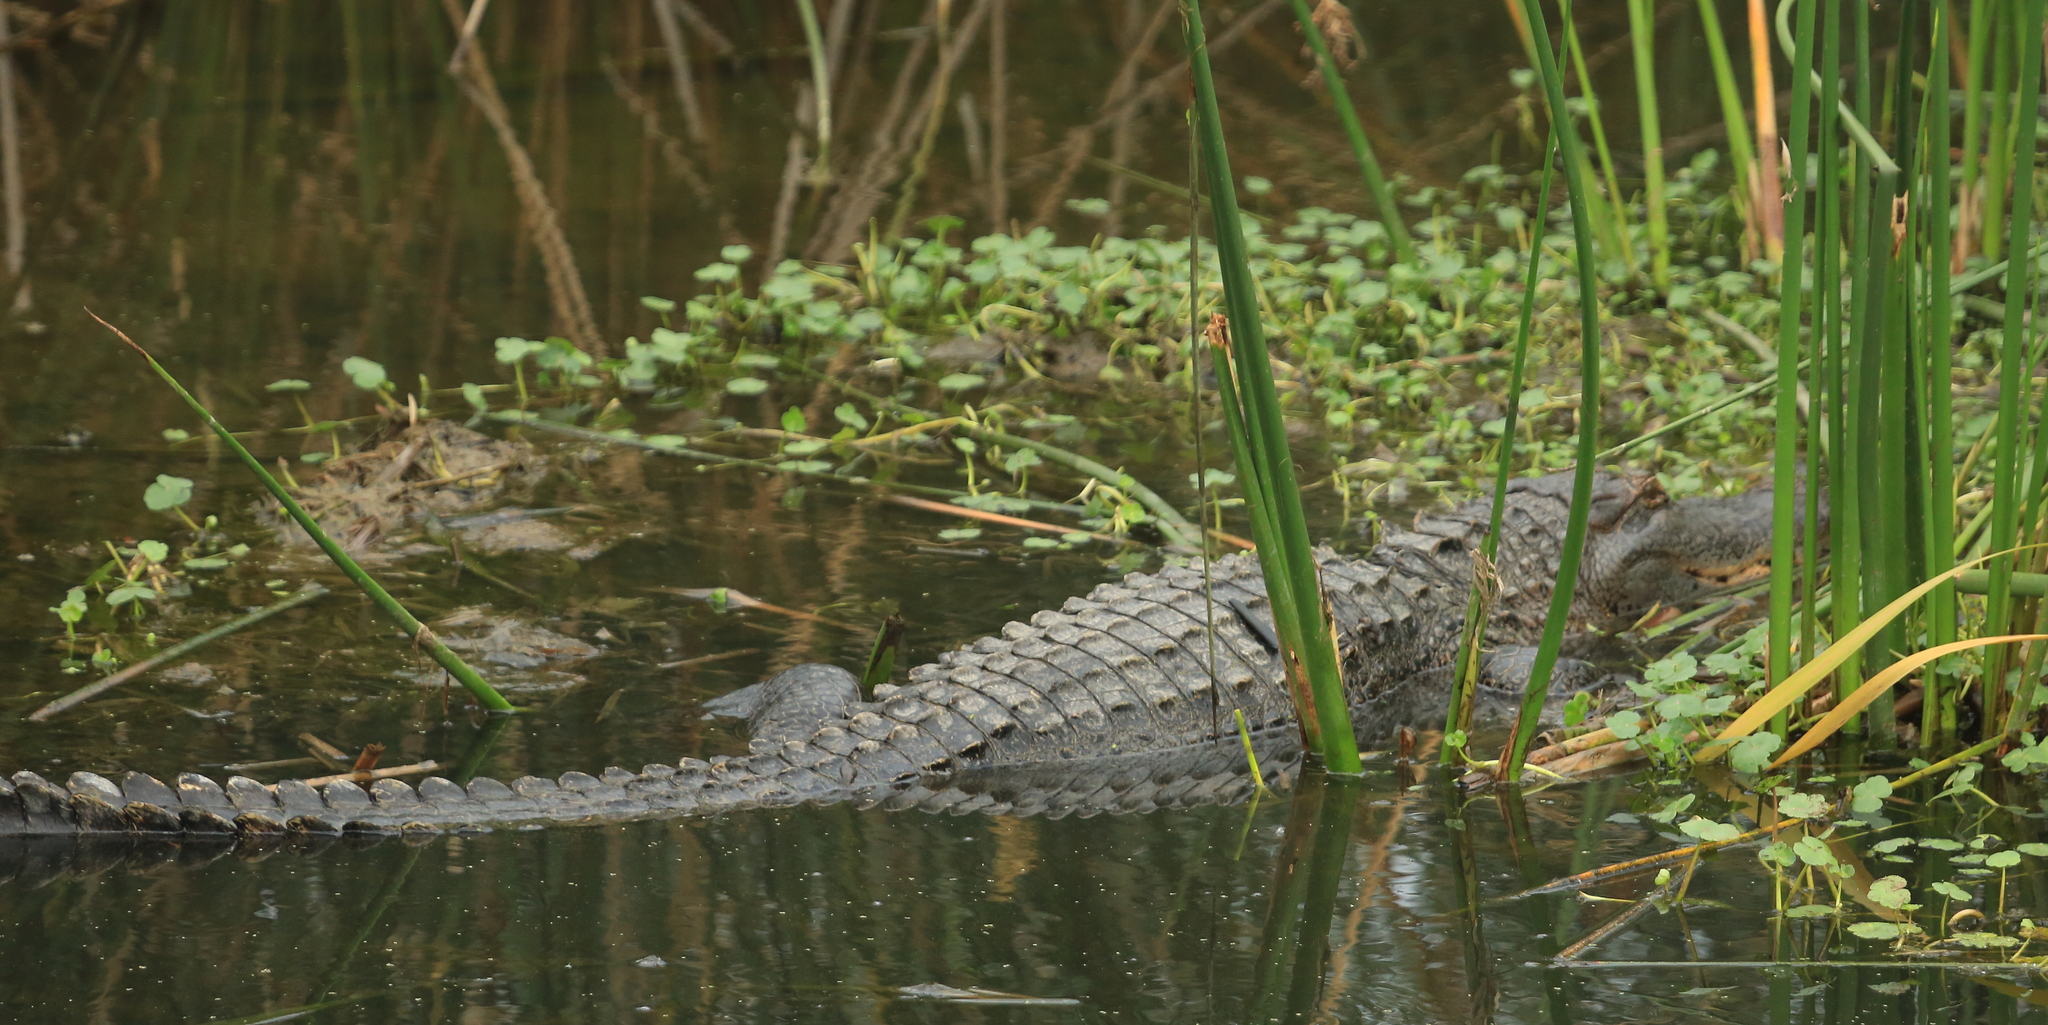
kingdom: Animalia
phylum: Chordata
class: Crocodylia
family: Alligatoridae
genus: Alligator
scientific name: Alligator mississippiensis
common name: American alligator
